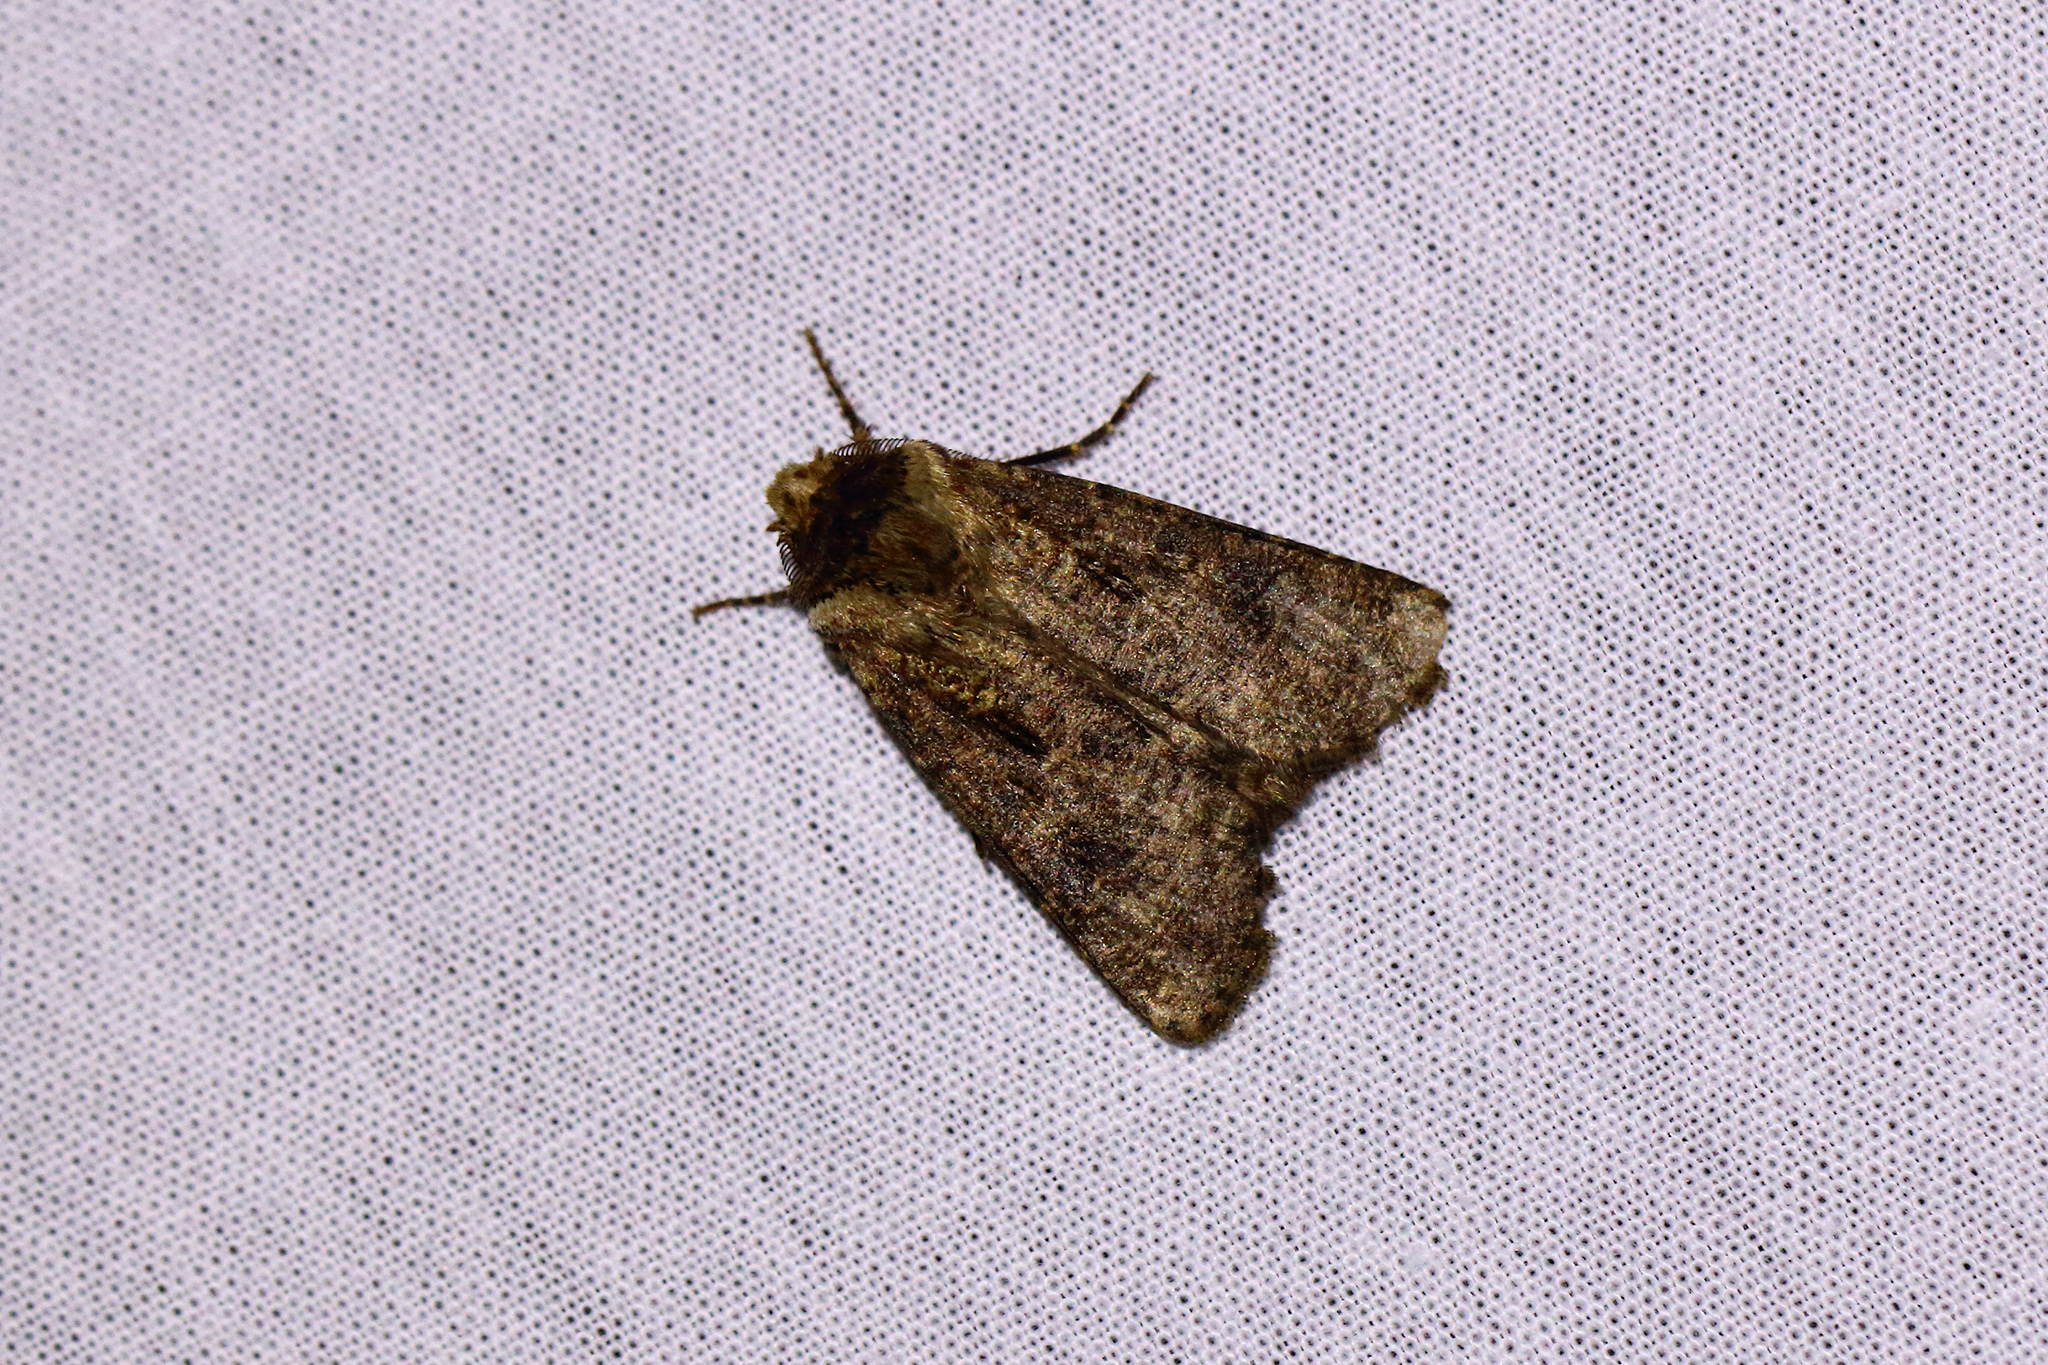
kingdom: Animalia
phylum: Arthropoda
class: Insecta
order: Lepidoptera
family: Noctuidae
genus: Agrotis
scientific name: Agrotis clavis
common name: Heart and club
